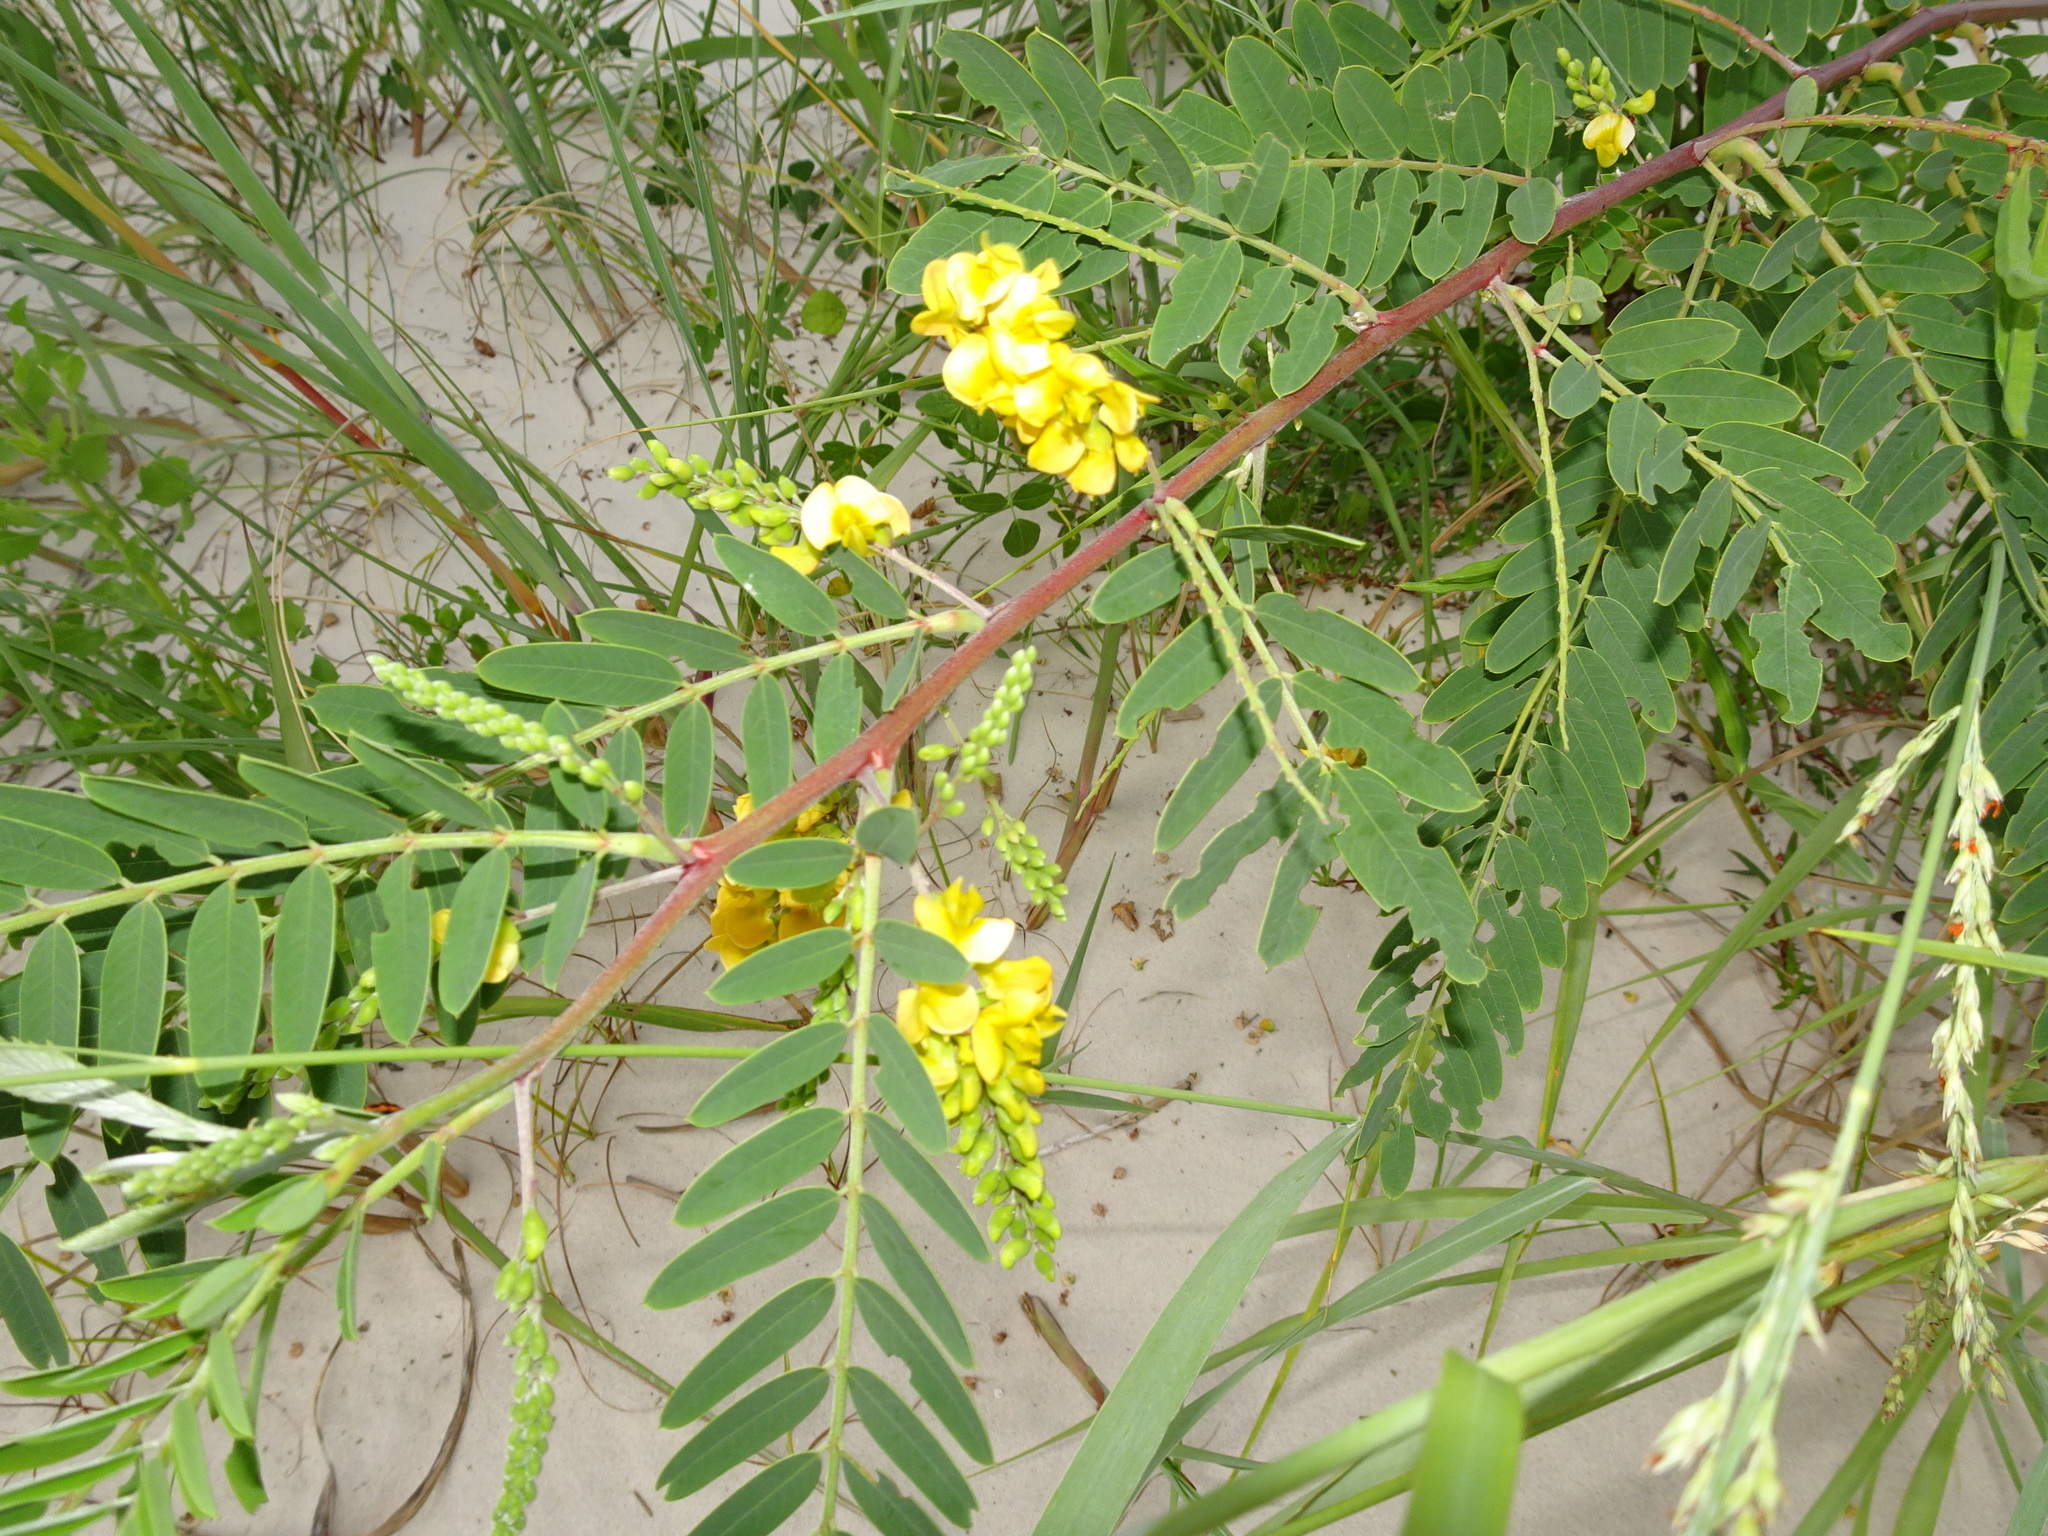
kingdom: Plantae
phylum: Tracheophyta
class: Magnoliopsida
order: Fabales
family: Fabaceae
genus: Sesbania
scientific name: Sesbania drummondii
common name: Poison-bean
